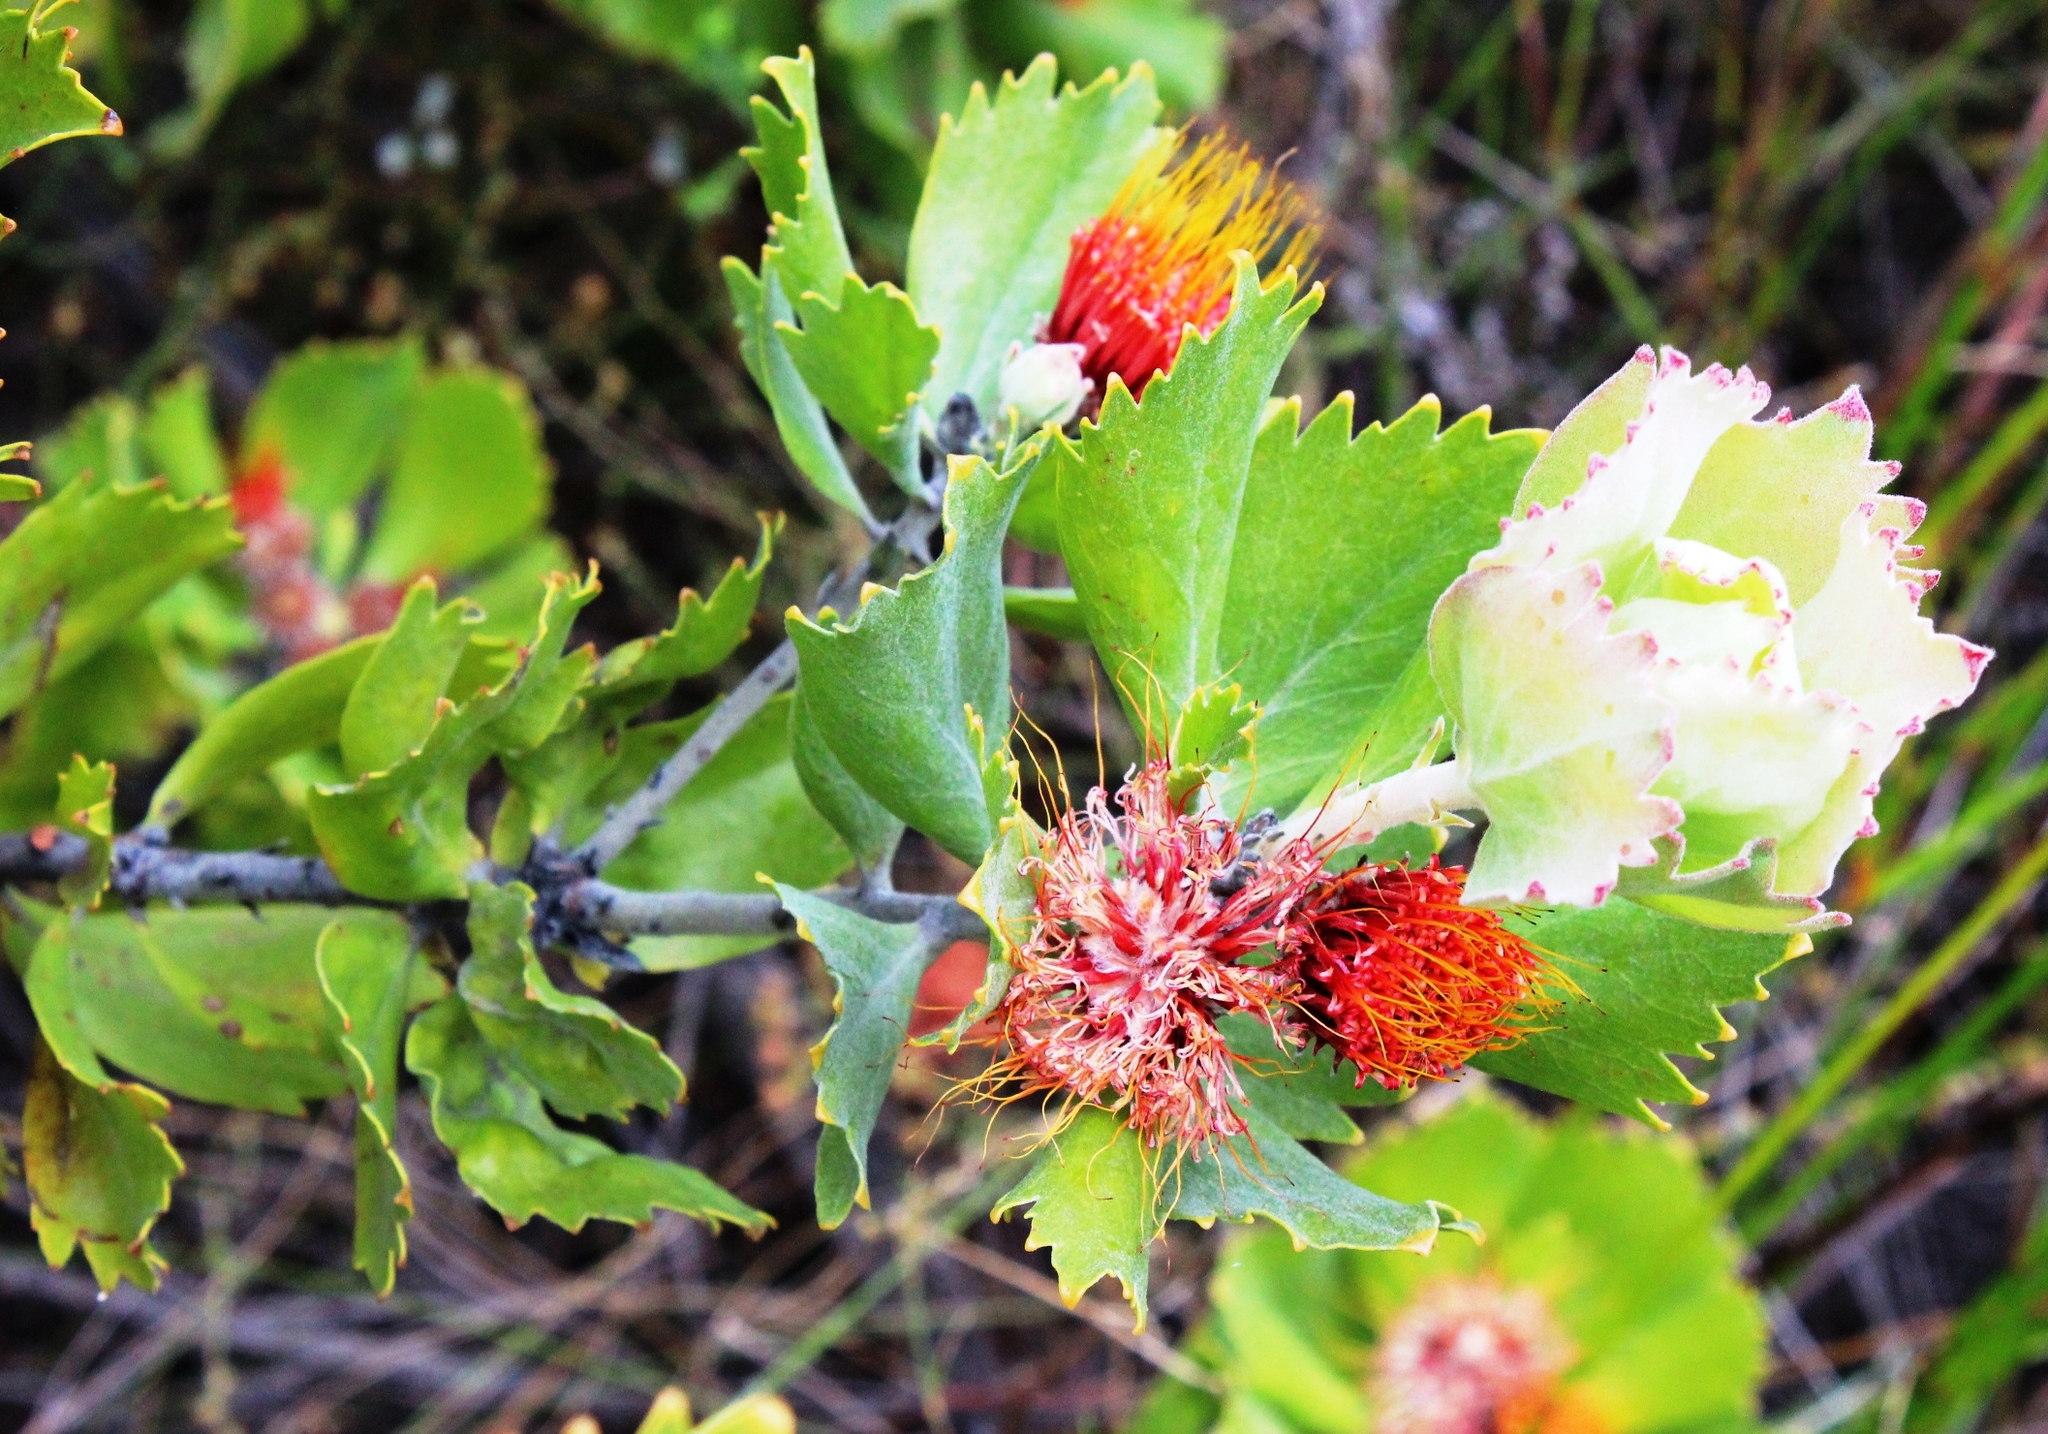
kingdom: Plantae
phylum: Tracheophyta
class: Magnoliopsida
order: Proteales
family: Proteaceae
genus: Leucospermum
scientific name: Leucospermum mundii
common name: Langeberg pincushion
